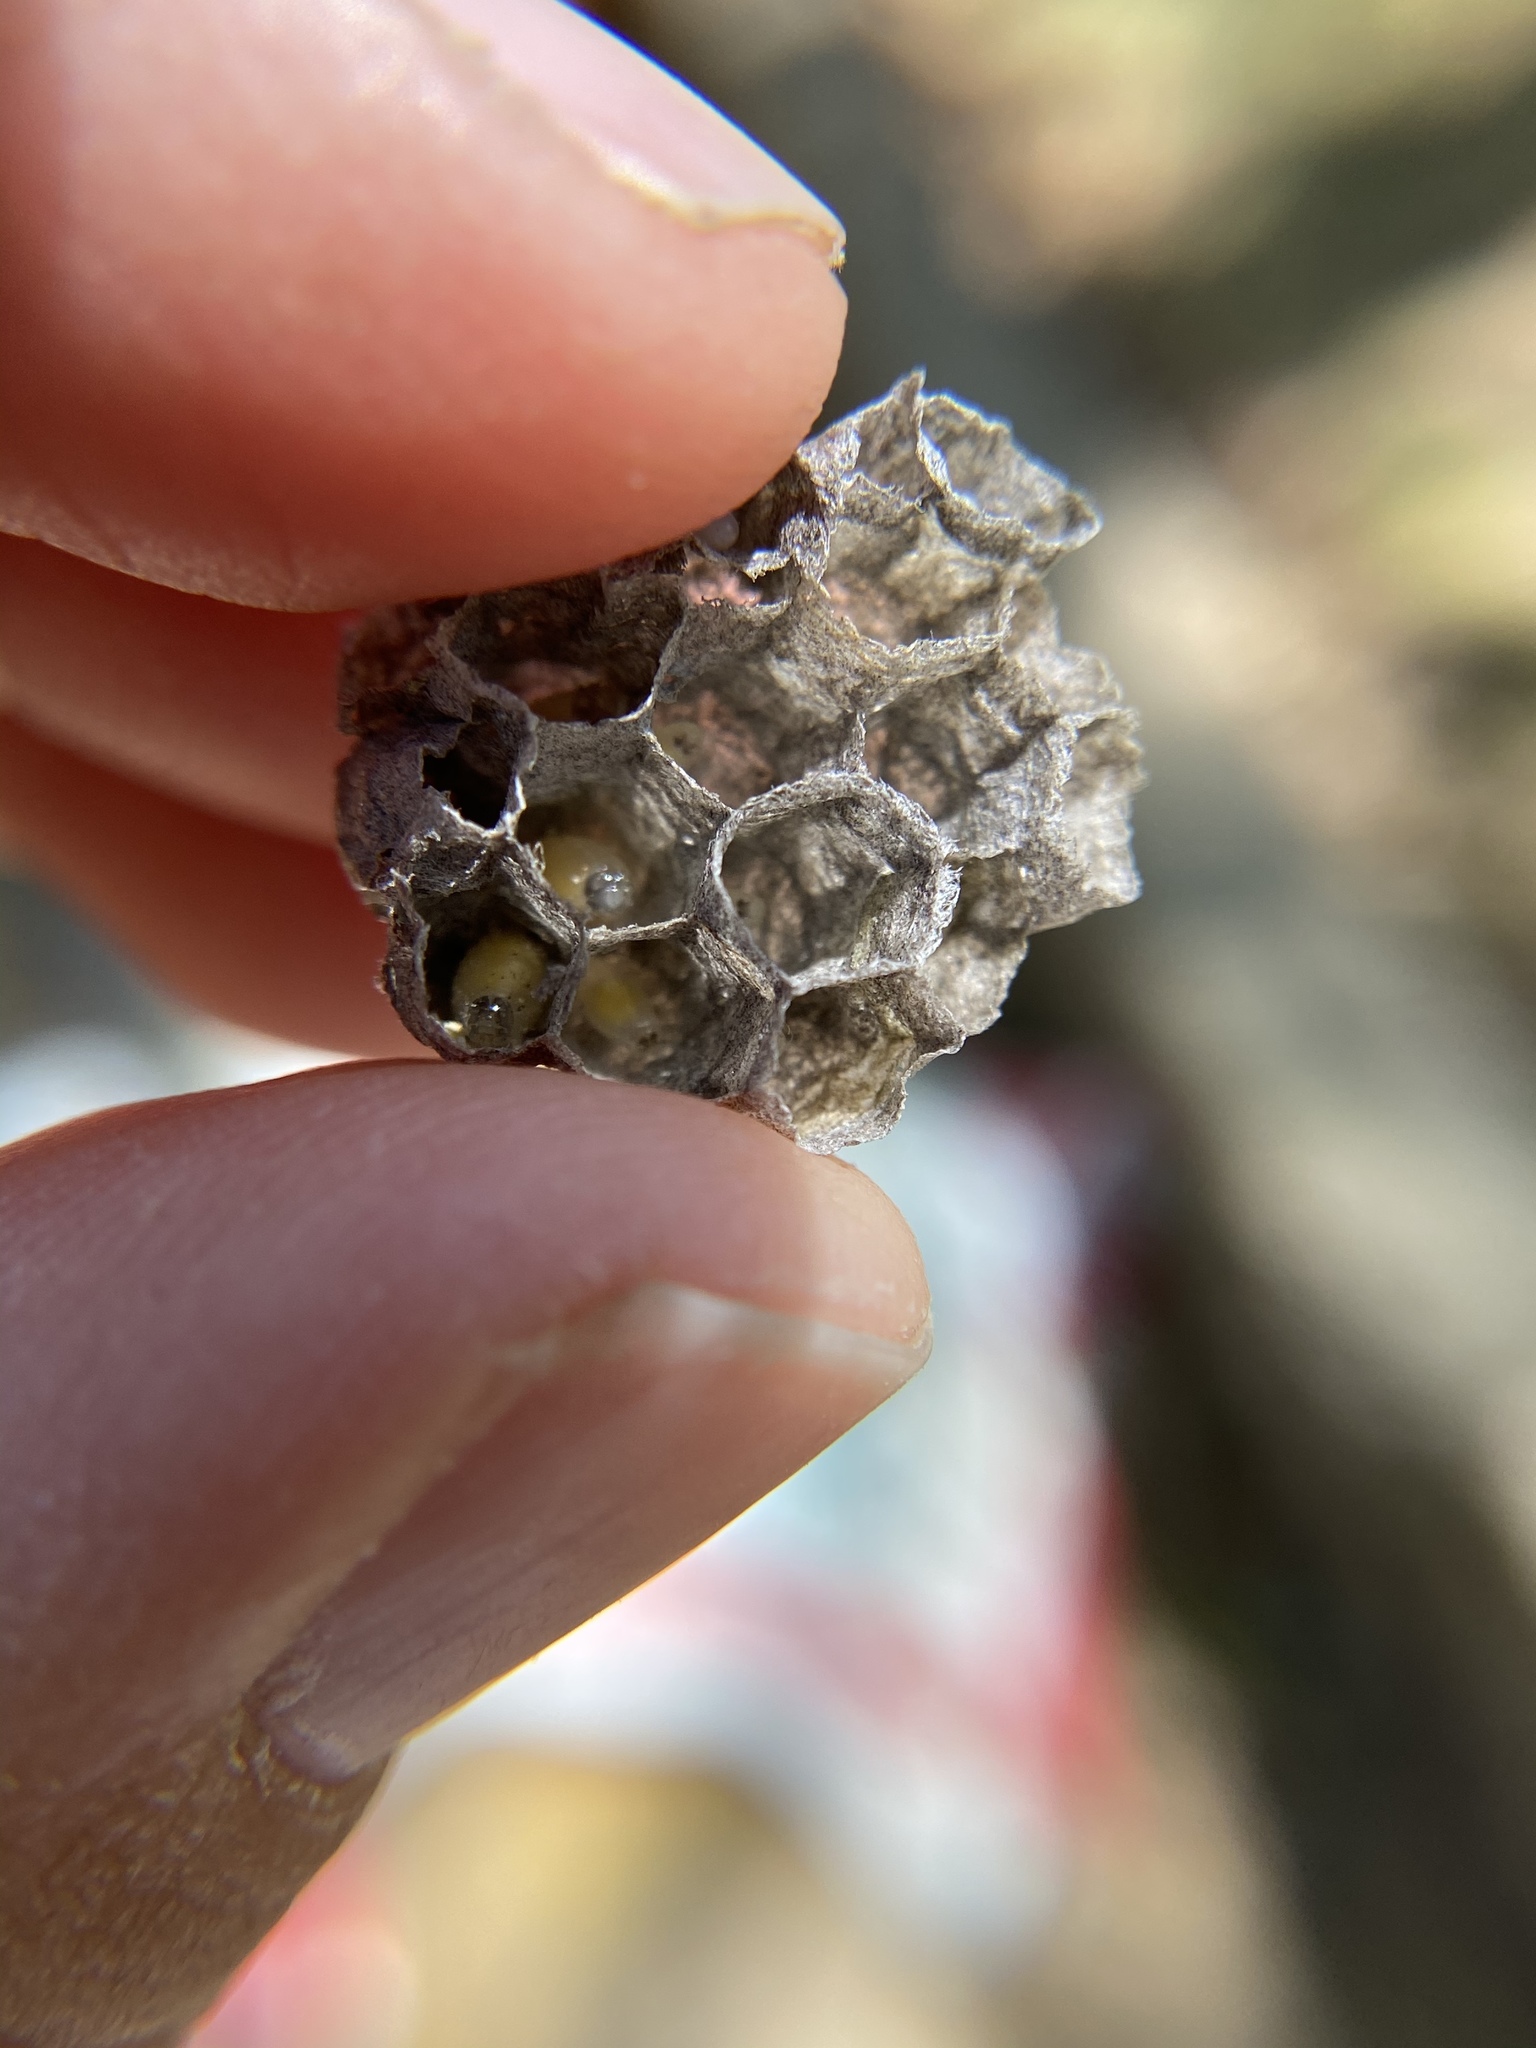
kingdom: Animalia
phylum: Arthropoda
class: Insecta
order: Hymenoptera
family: Eumenidae
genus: Polistes
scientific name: Polistes
